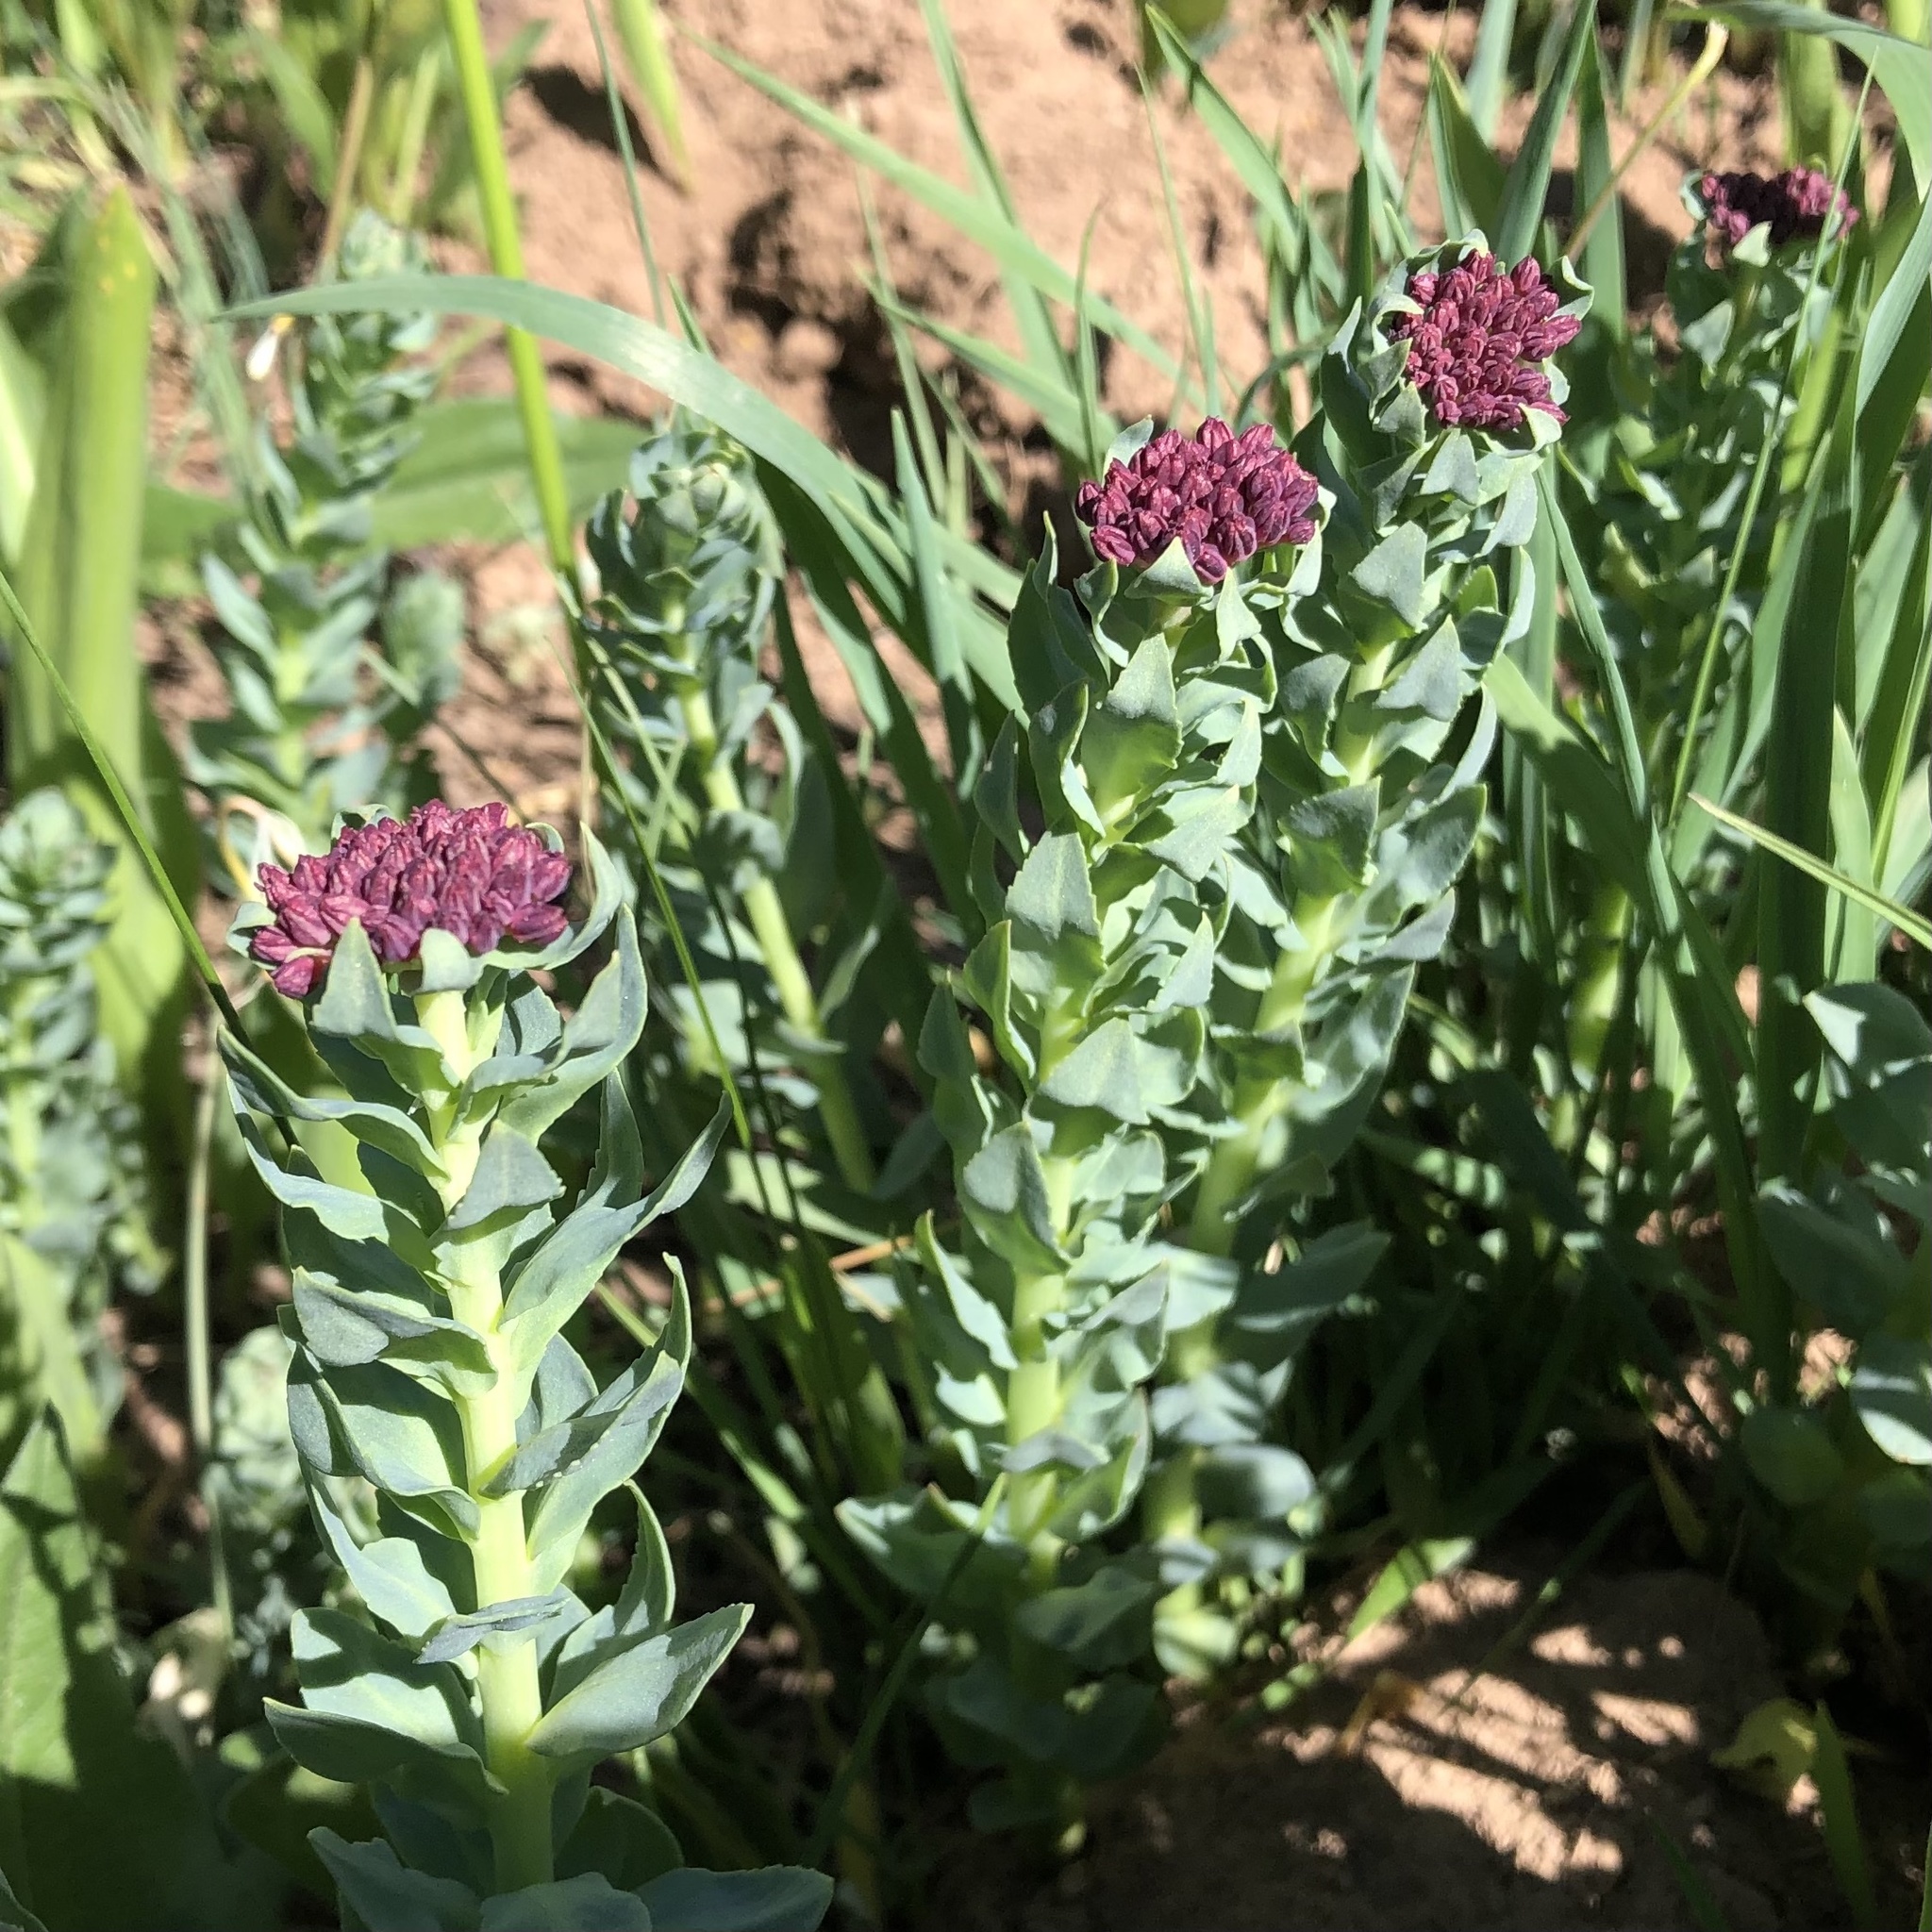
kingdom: Plantae
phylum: Tracheophyta
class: Magnoliopsida
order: Saxifragales
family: Crassulaceae
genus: Rhodiola
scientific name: Rhodiola integrifolia
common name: Western roseroot
